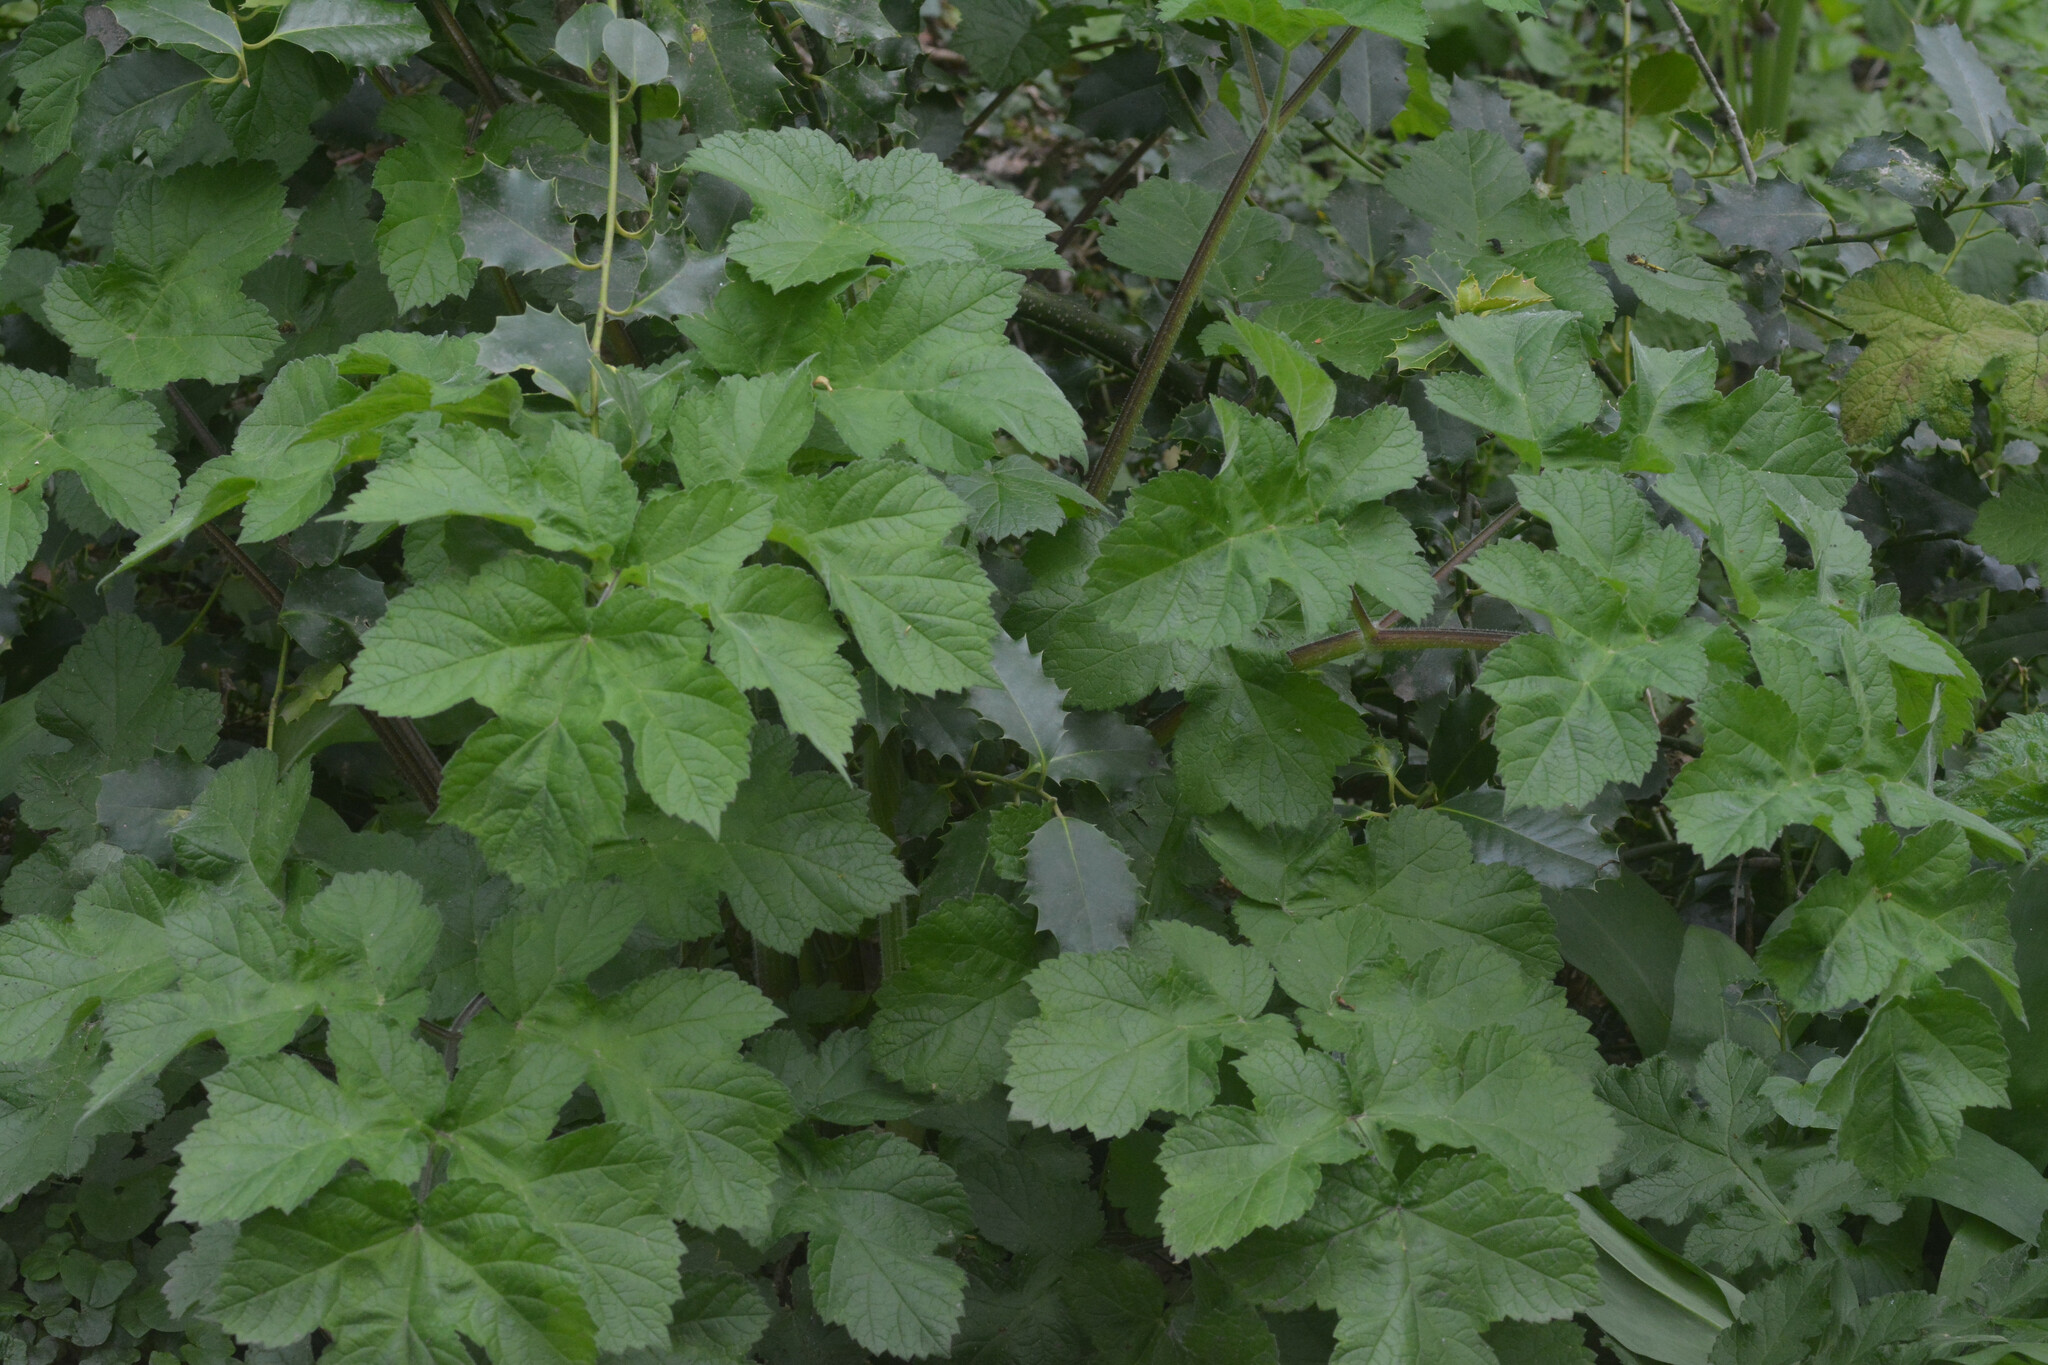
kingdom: Plantae
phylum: Tracheophyta
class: Magnoliopsida
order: Apiales
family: Apiaceae
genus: Heracleum
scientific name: Heracleum sphondylium
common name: Hogweed
